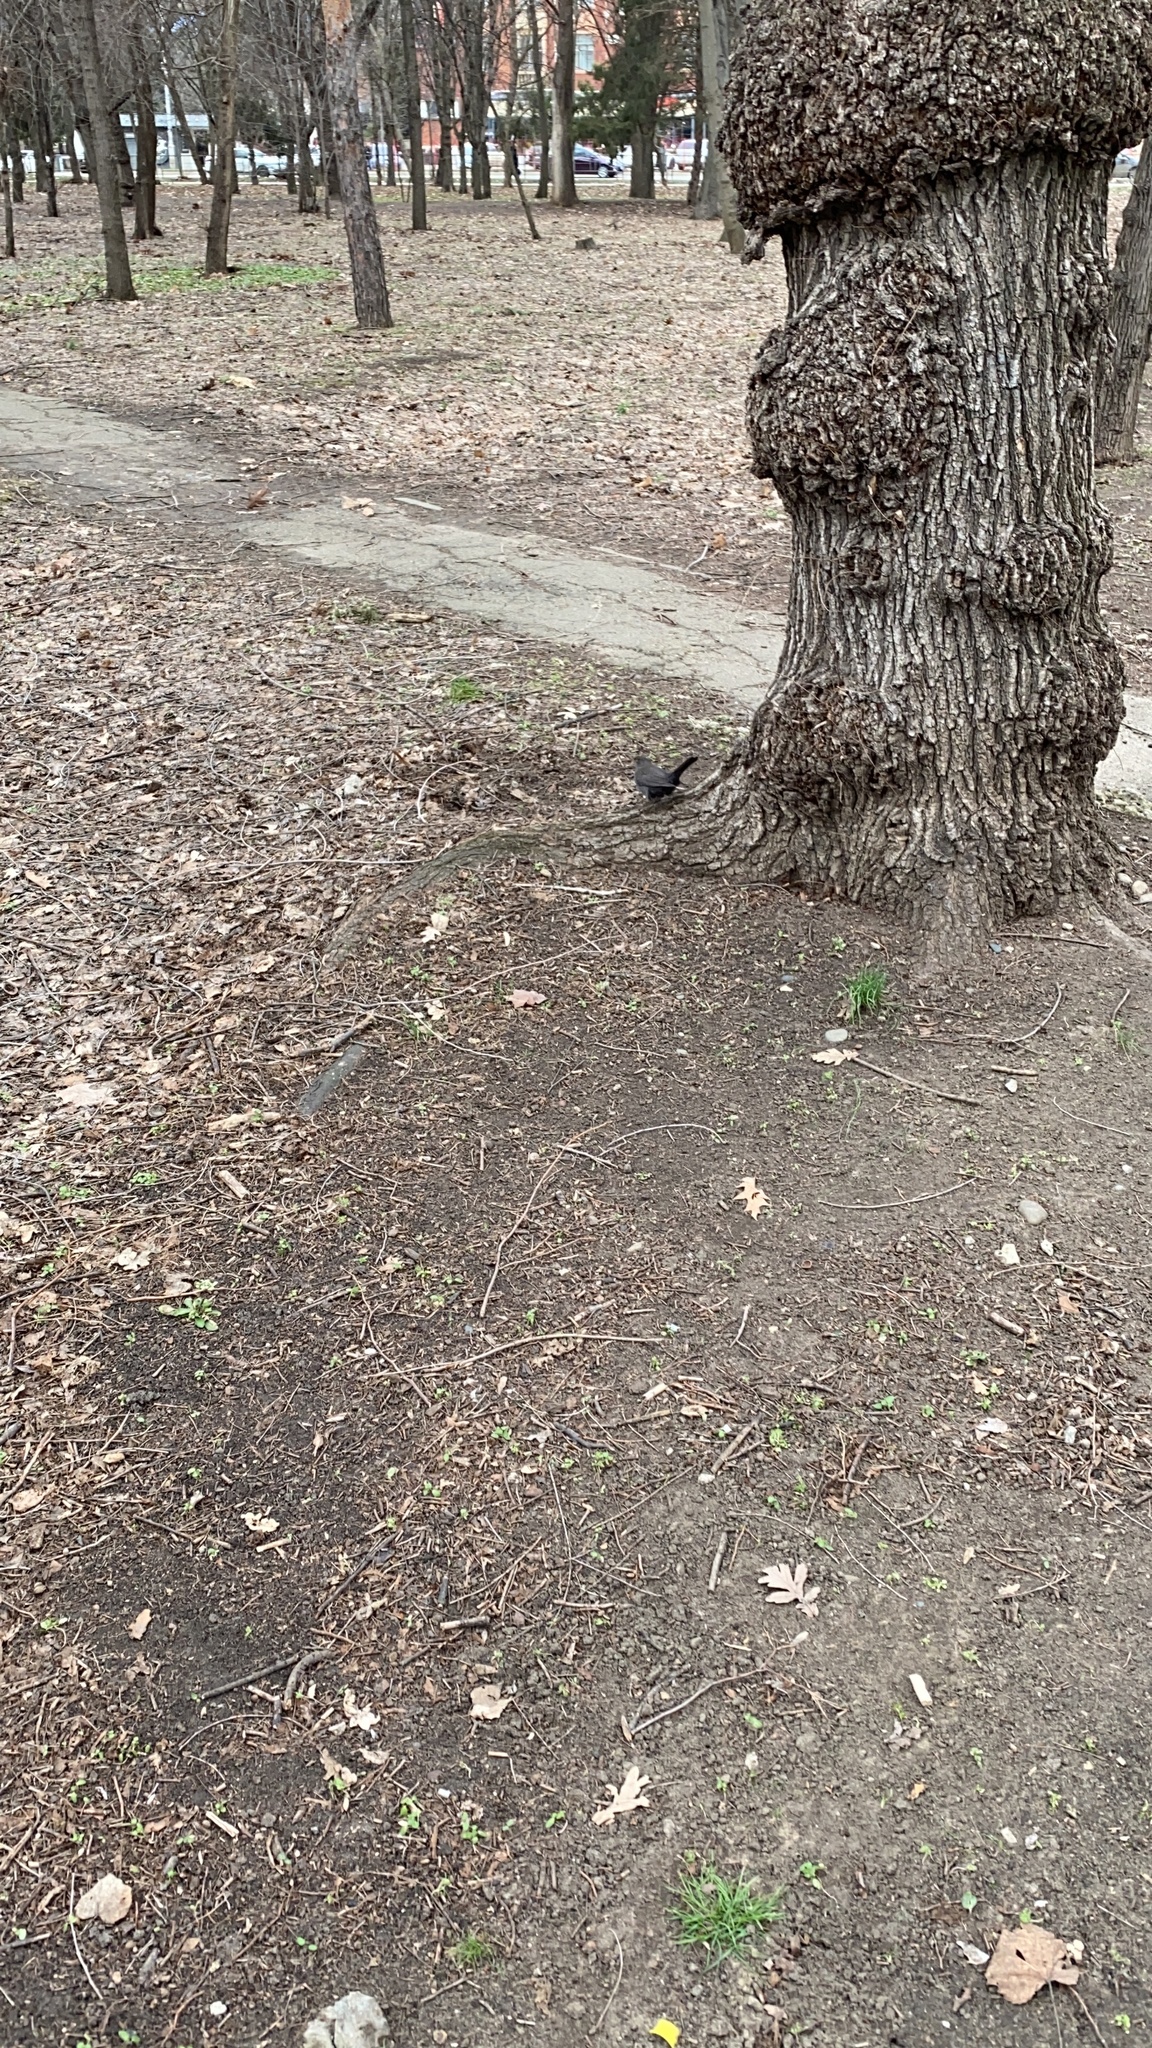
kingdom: Animalia
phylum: Chordata
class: Aves
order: Passeriformes
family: Turdidae
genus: Turdus
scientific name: Turdus merula
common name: Common blackbird
